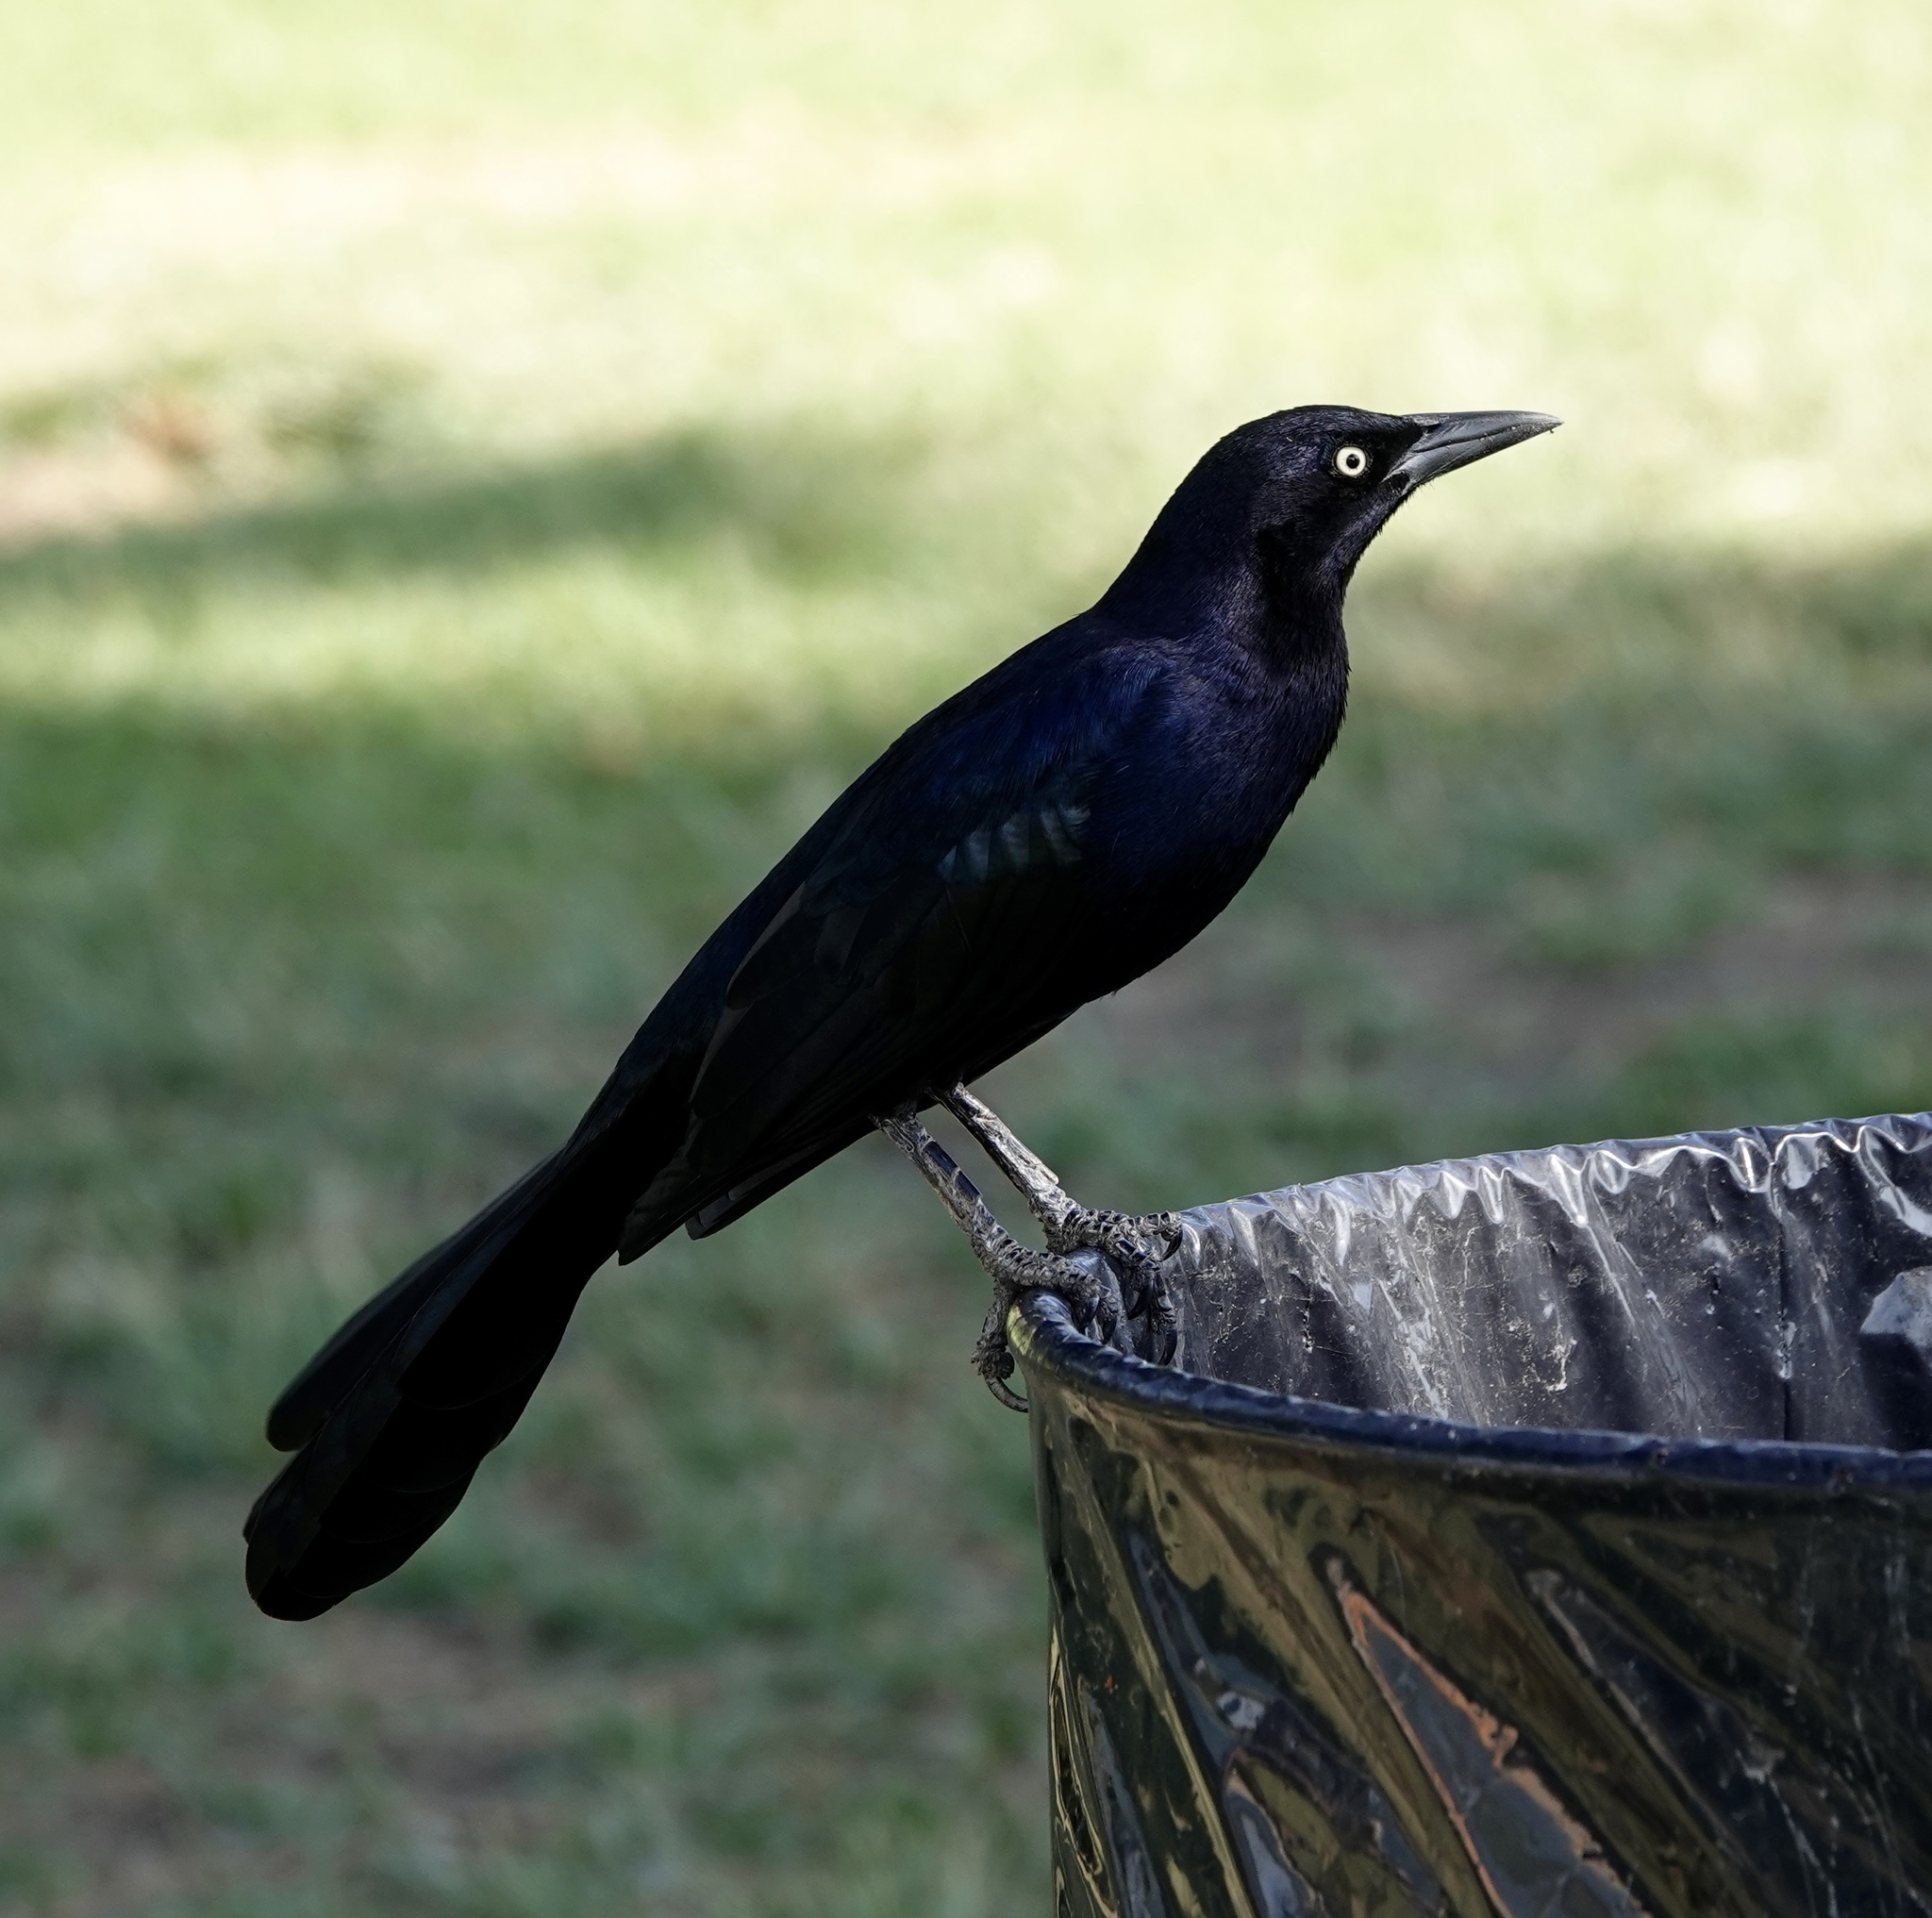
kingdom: Animalia
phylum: Chordata
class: Aves
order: Passeriformes
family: Icteridae
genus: Quiscalus
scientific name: Quiscalus mexicanus
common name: Great-tailed grackle
